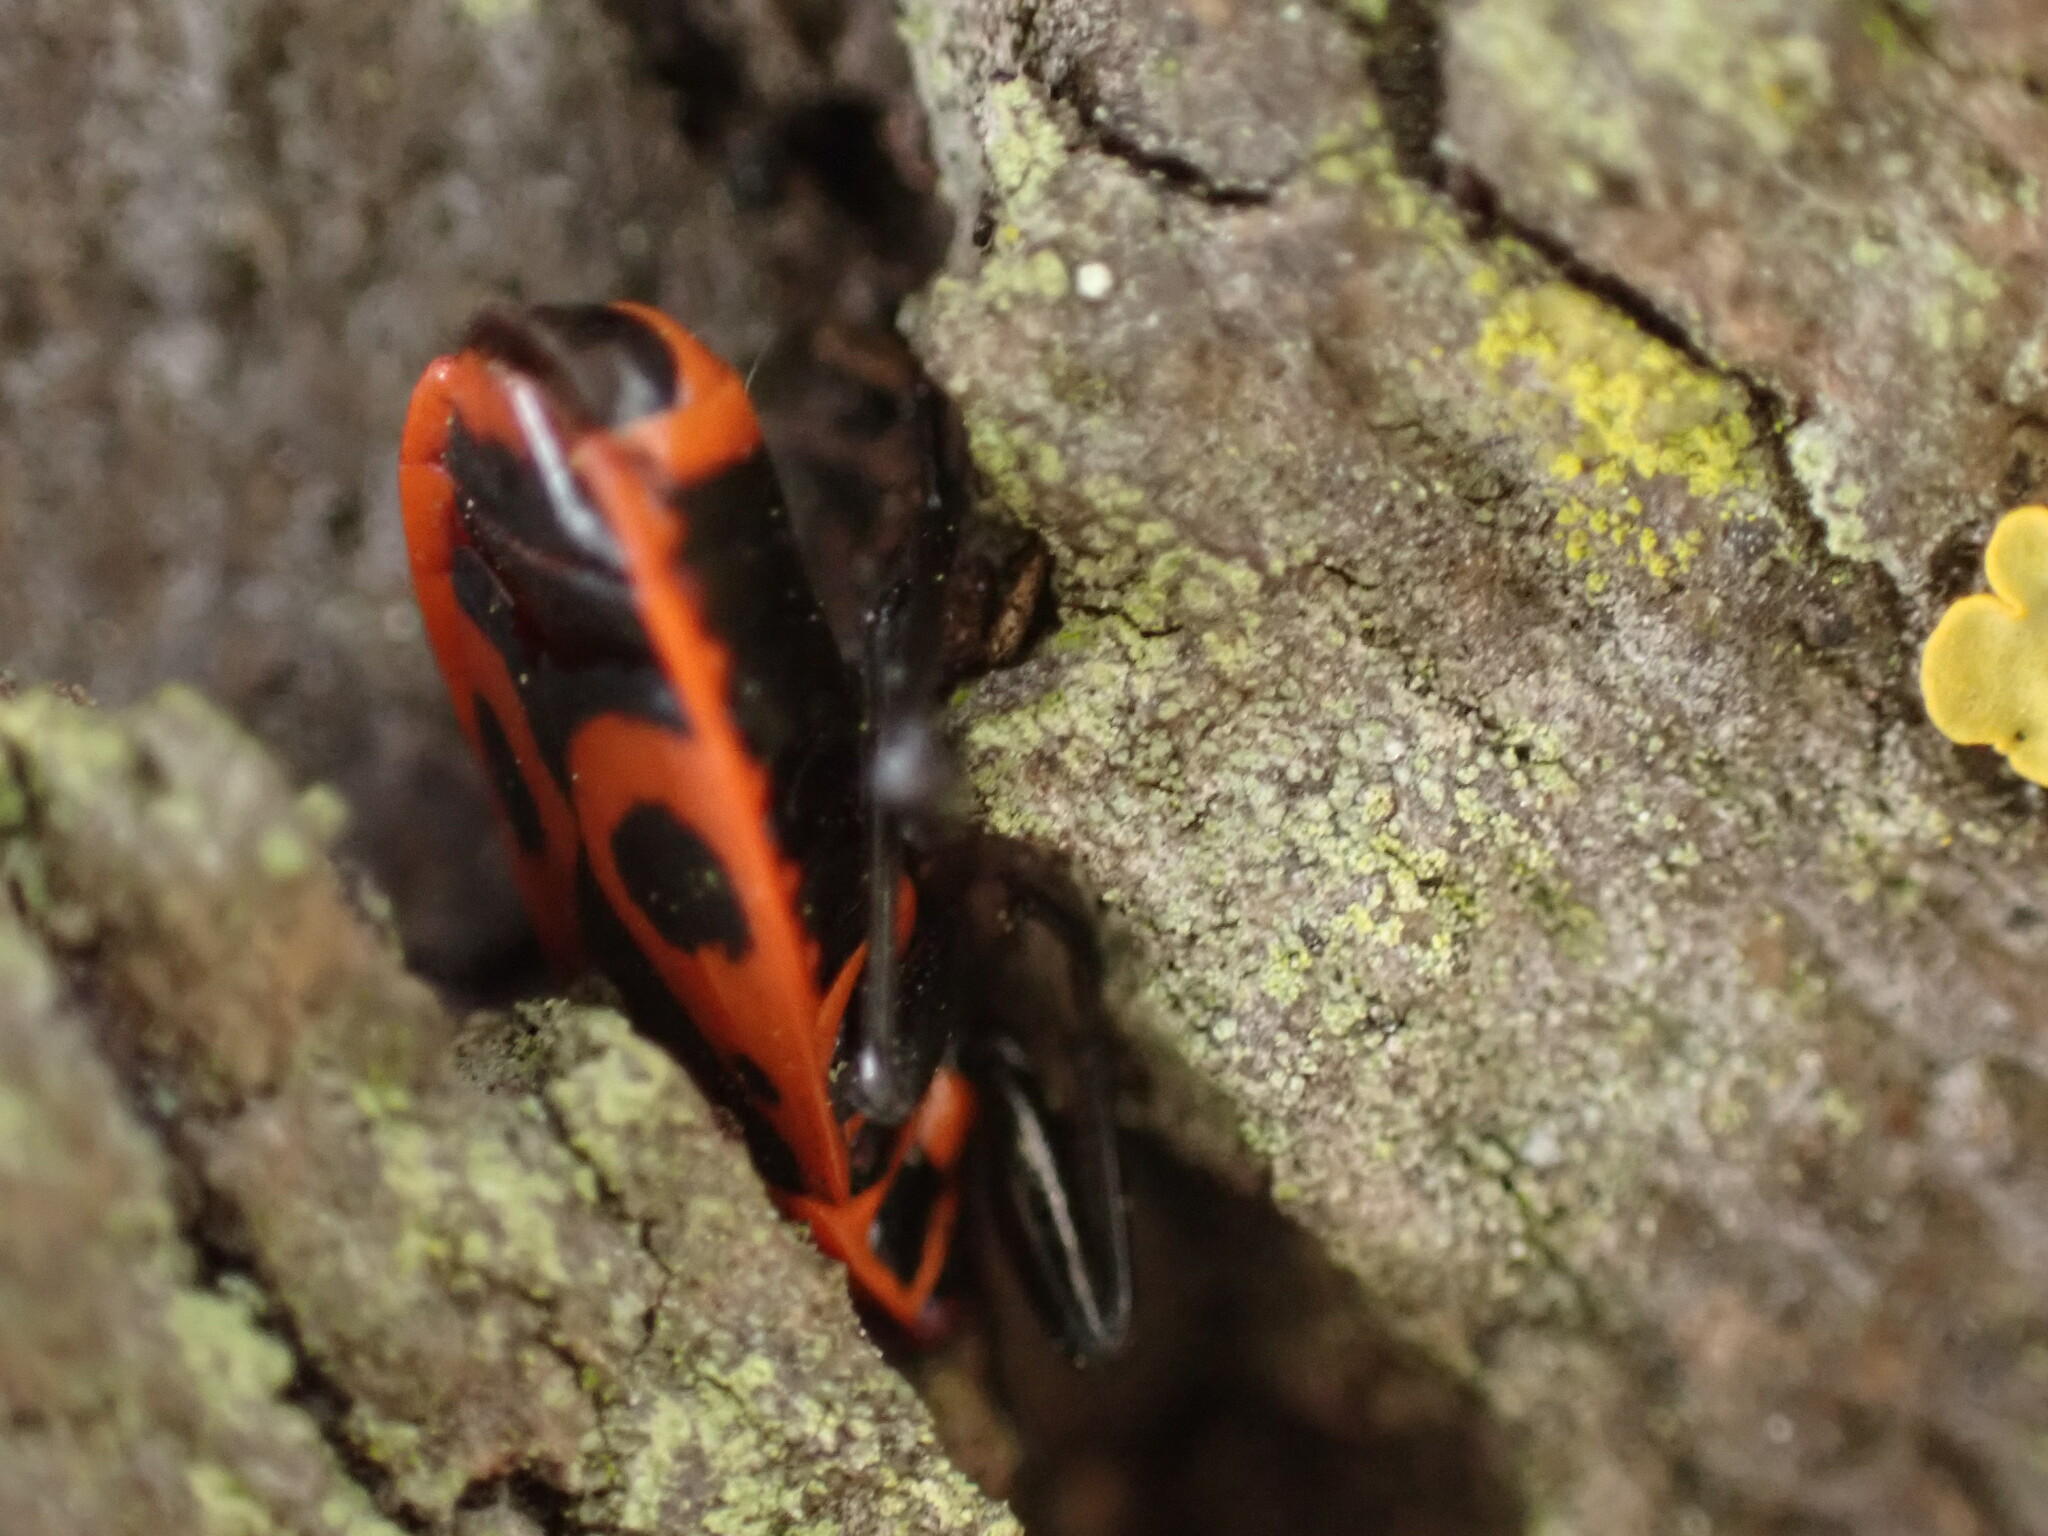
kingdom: Animalia
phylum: Arthropoda
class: Insecta
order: Hemiptera
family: Pyrrhocoridae
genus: Pyrrhocoris
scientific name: Pyrrhocoris apterus
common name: Firebug
